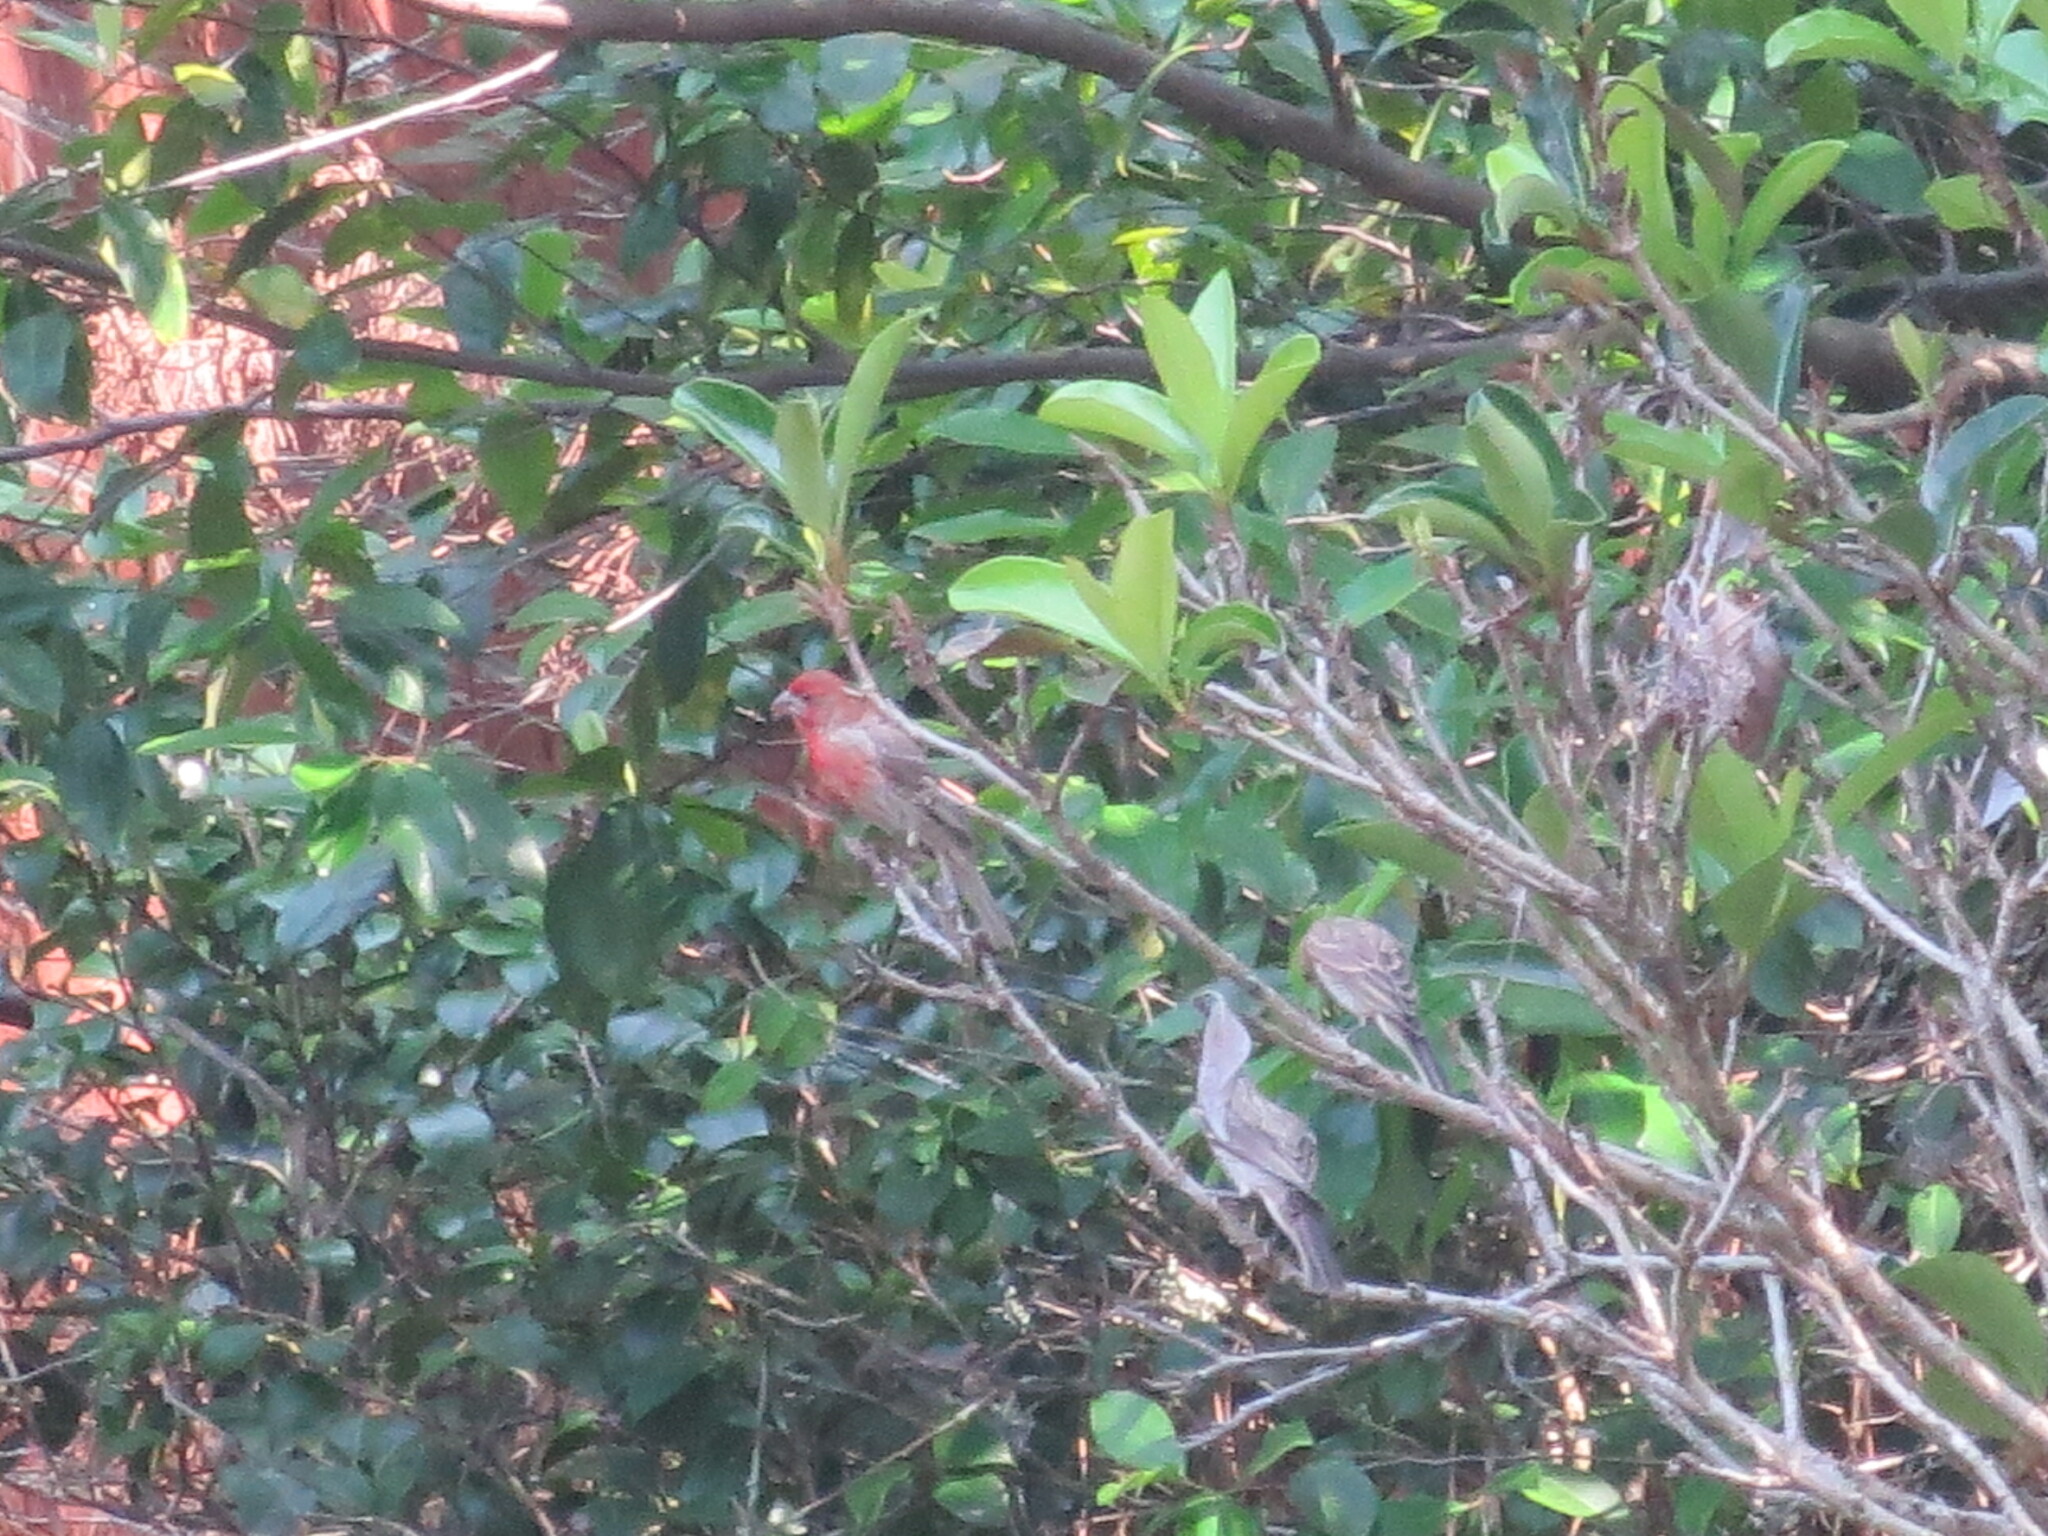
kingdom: Animalia
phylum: Chordata
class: Aves
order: Passeriformes
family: Fringillidae
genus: Haemorhous
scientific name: Haemorhous mexicanus
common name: House finch
